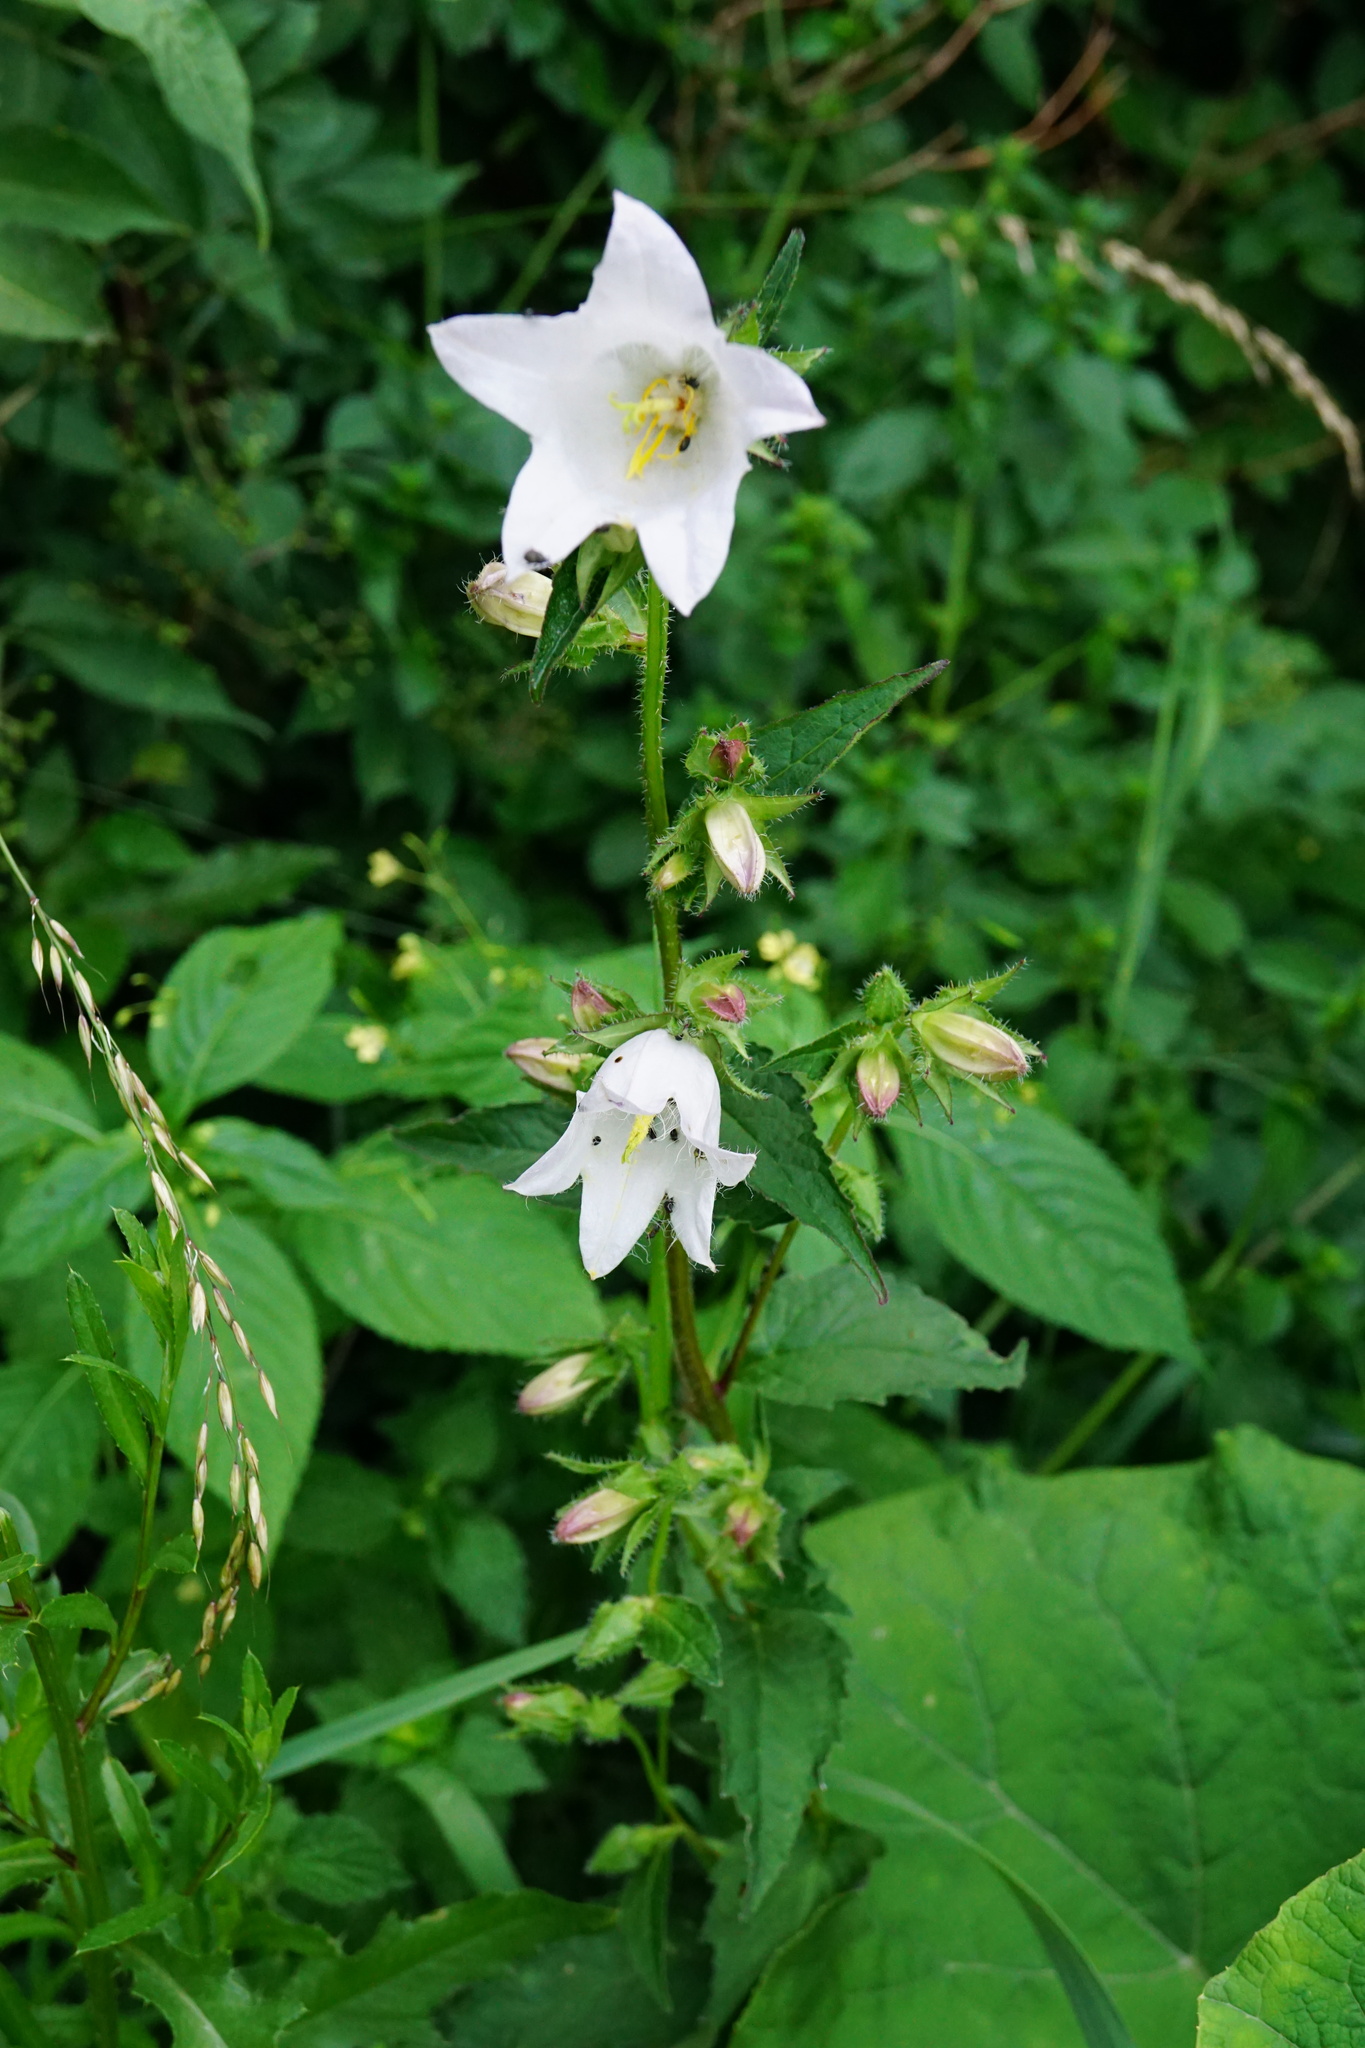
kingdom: Plantae
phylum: Tracheophyta
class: Magnoliopsida
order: Asterales
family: Campanulaceae
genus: Campanula
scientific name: Campanula trachelium
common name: Nettle-leaved bellflower
